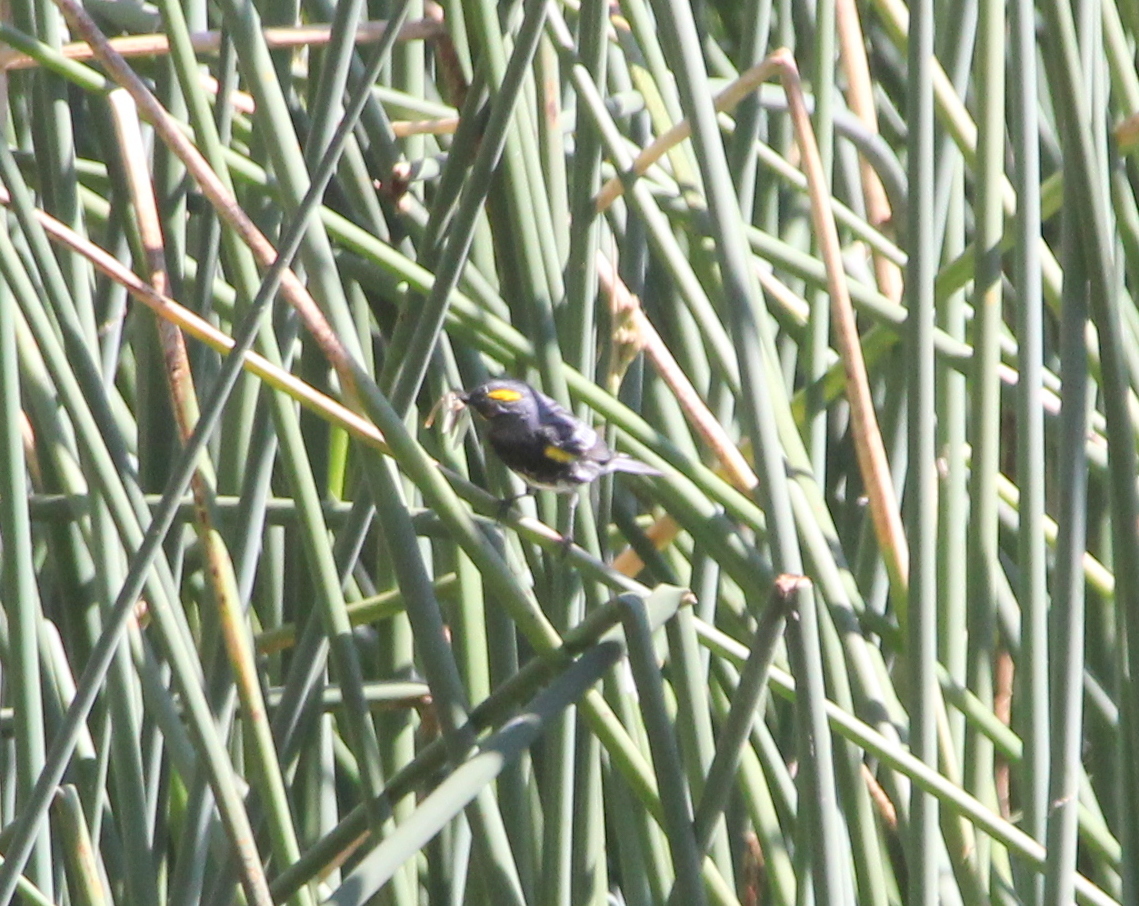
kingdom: Animalia
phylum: Chordata
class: Aves
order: Passeriformes
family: Parulidae
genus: Setophaga
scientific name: Setophaga auduboni
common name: Audubon's warbler
